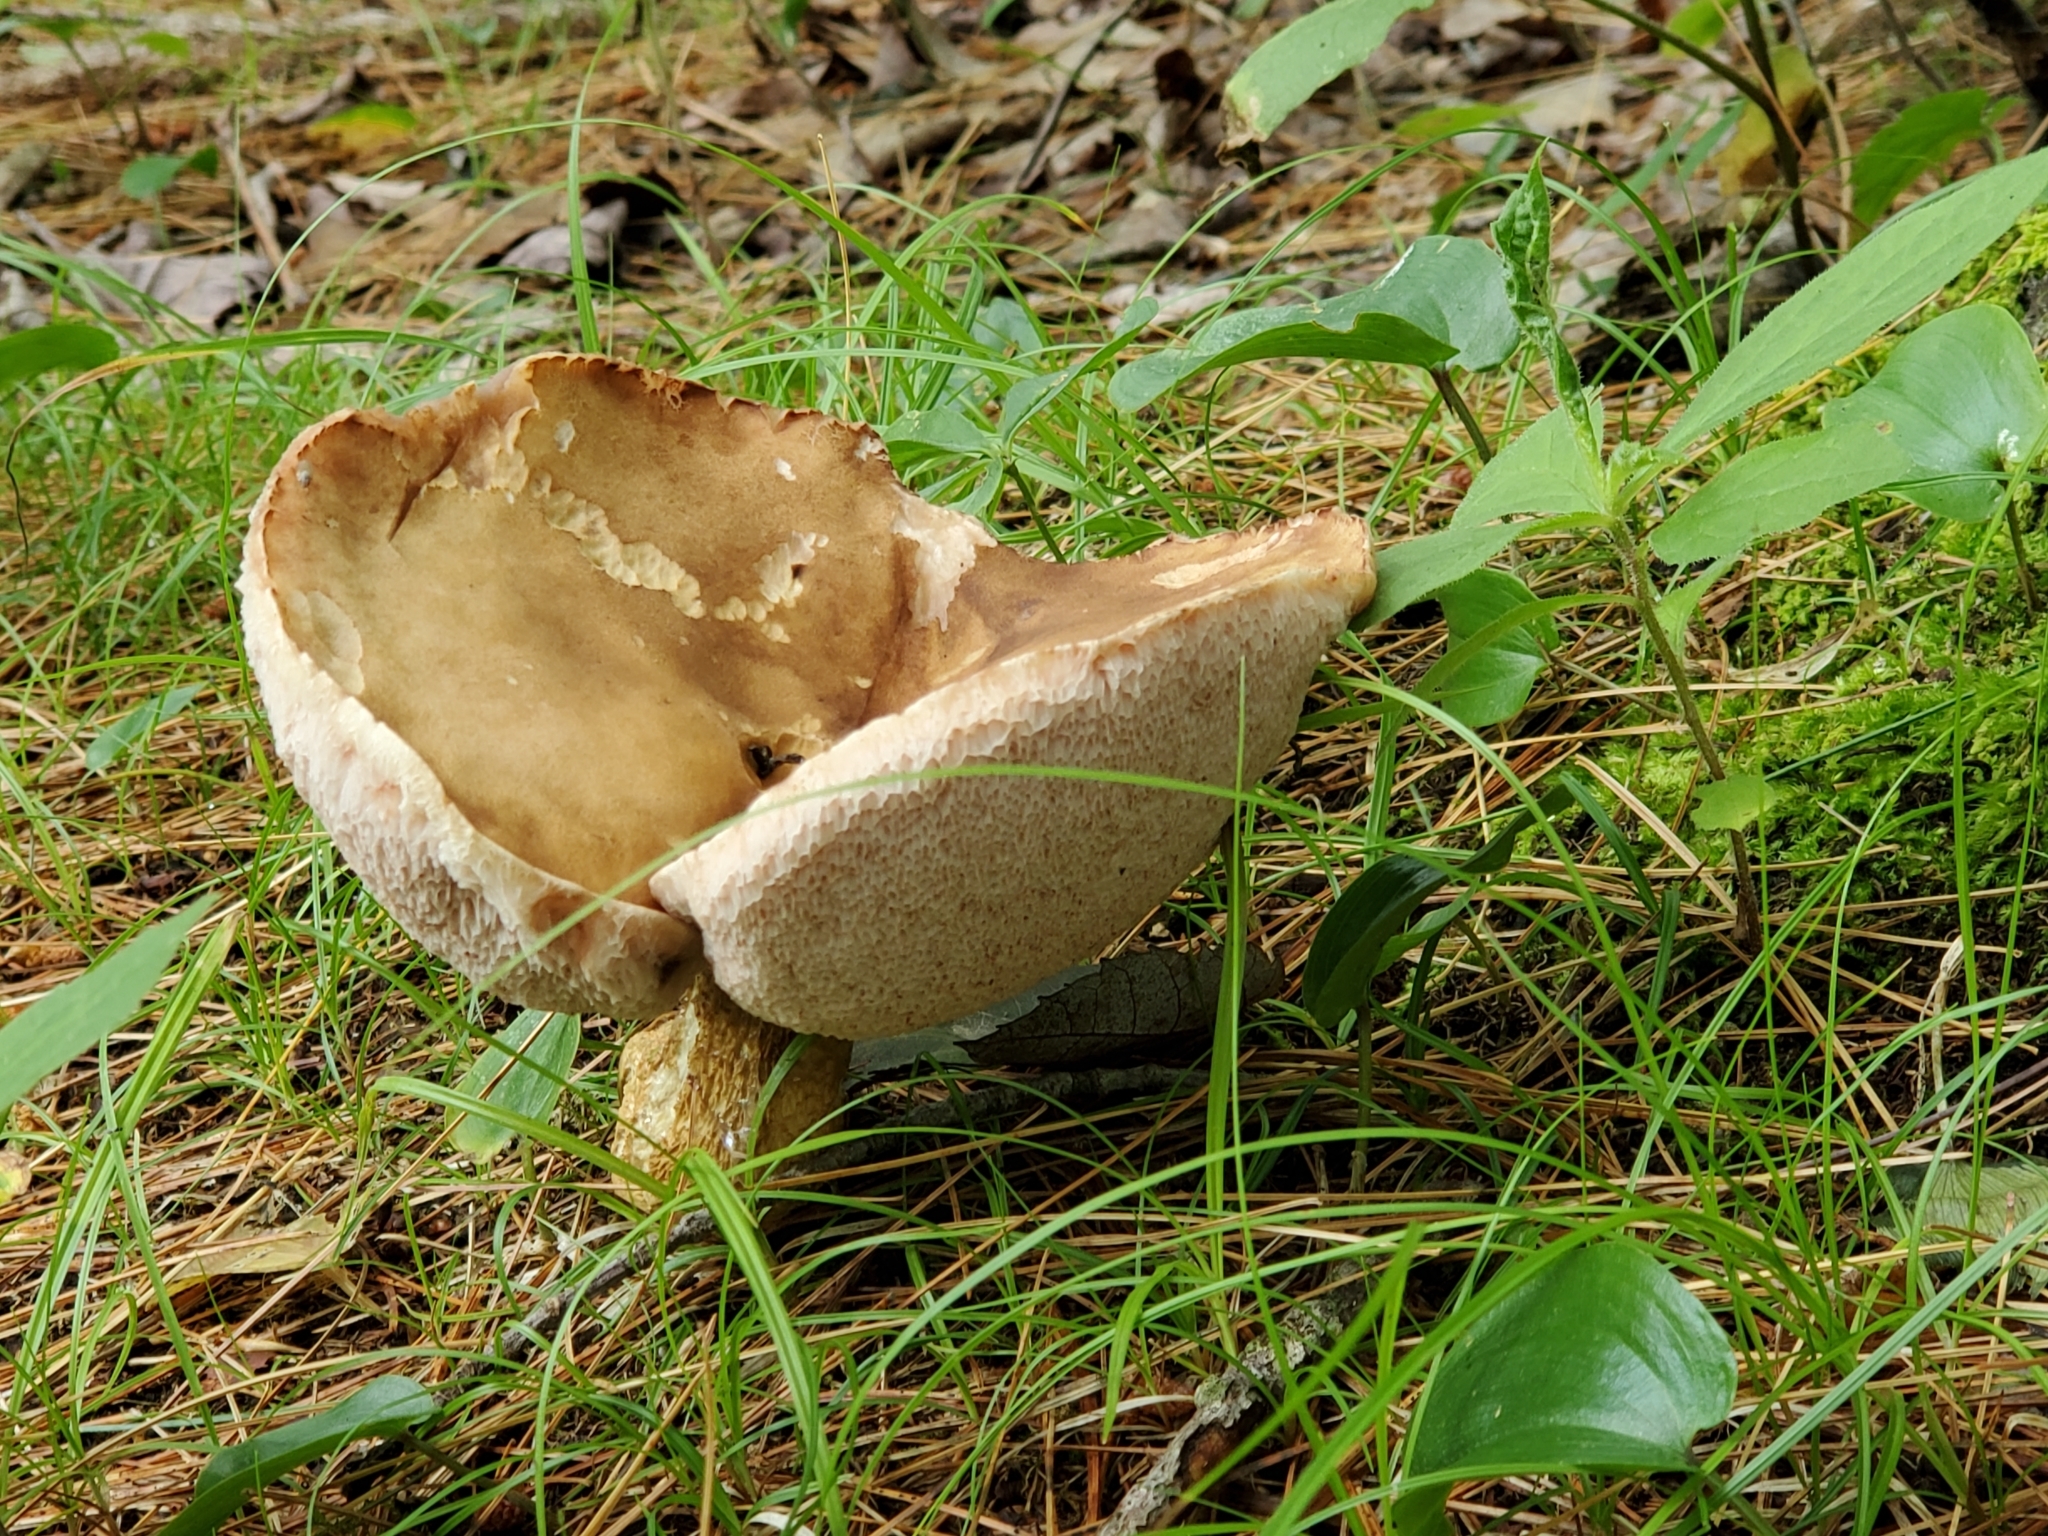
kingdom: Fungi
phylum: Basidiomycota
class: Agaricomycetes
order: Boletales
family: Boletaceae
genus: Tylopilus
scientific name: Tylopilus felleus
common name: Bitter bolete
